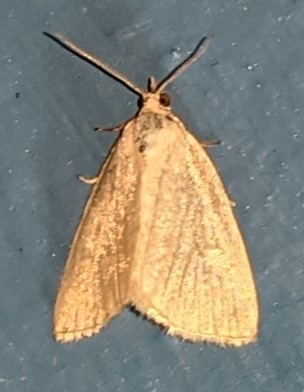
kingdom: Animalia
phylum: Arthropoda
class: Insecta
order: Lepidoptera
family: Noctuidae
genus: Protodeltote
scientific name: Protodeltote albidula
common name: Pale glyph
